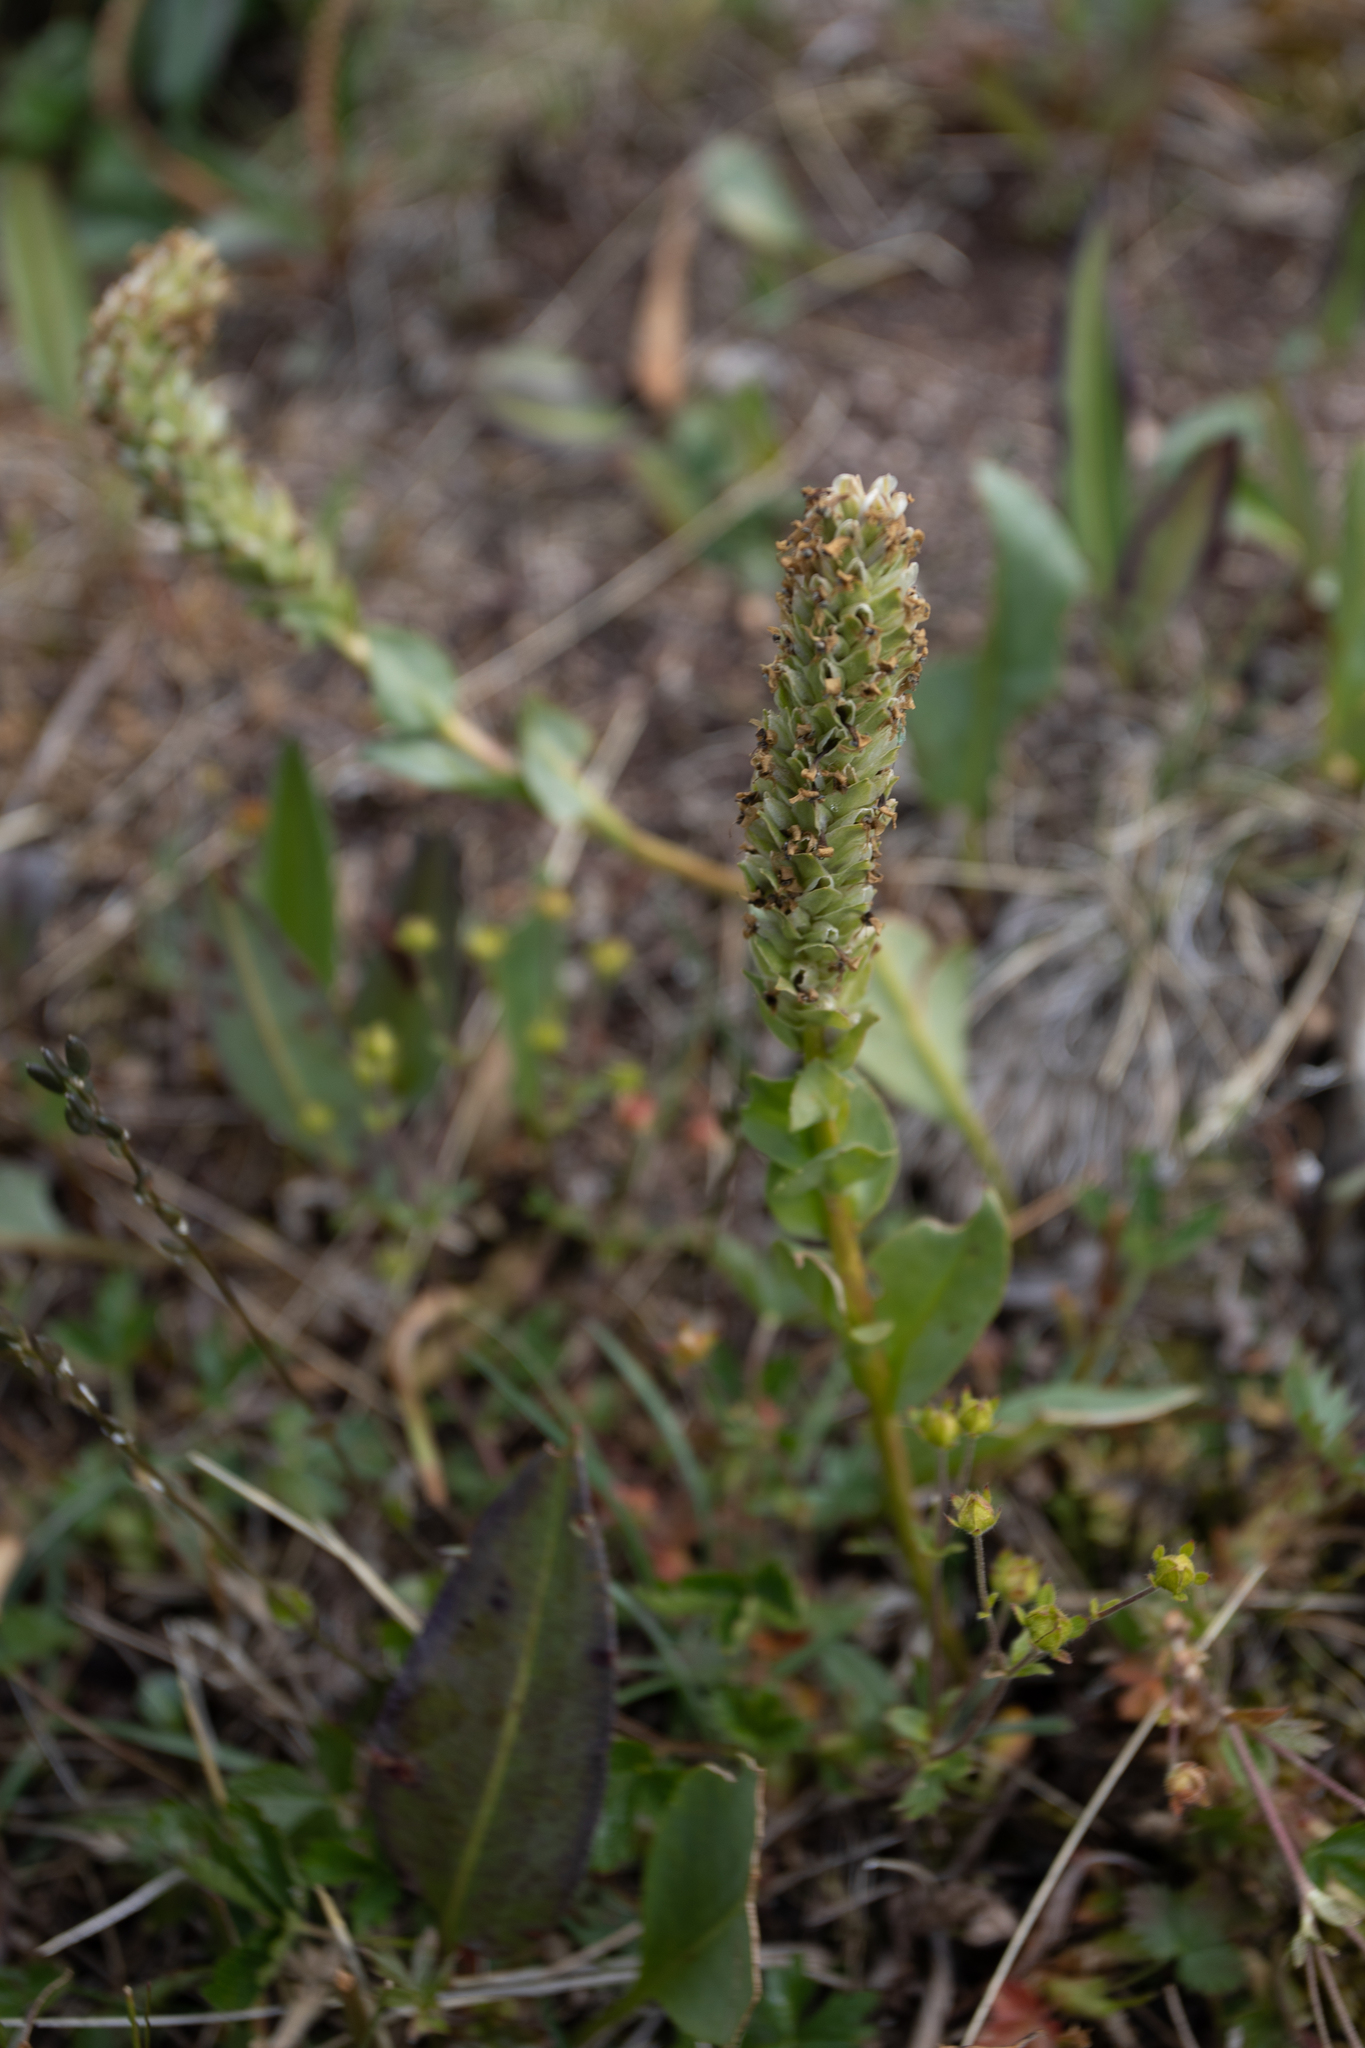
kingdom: Plantae
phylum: Tracheophyta
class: Magnoliopsida
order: Lamiales
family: Plantaginaceae
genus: Lagotis
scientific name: Lagotis integrifolia
